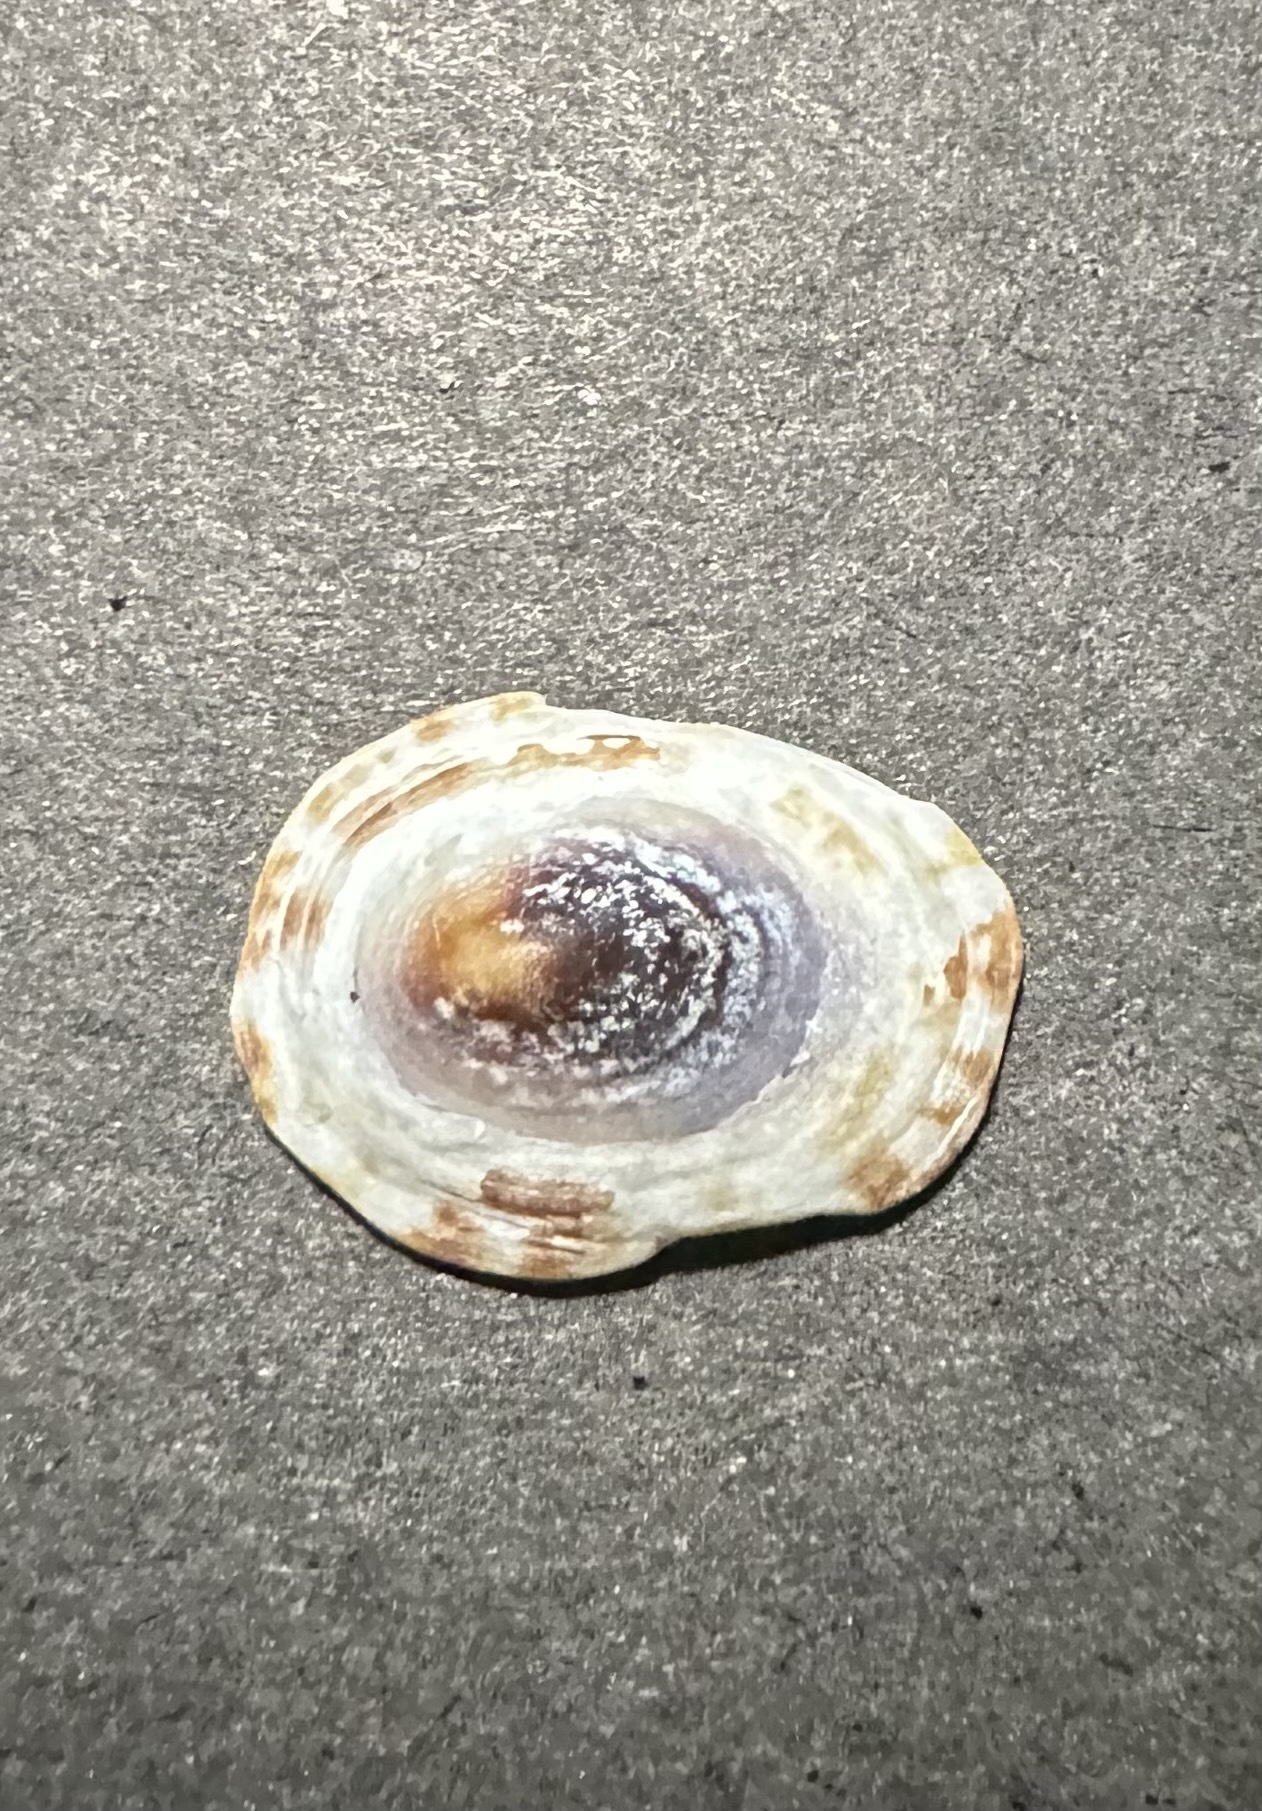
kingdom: Animalia
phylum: Mollusca
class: Gastropoda
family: Lottiidae
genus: Testudinalia
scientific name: Testudinalia testudinalis
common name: Common tortoiseshell limpet
